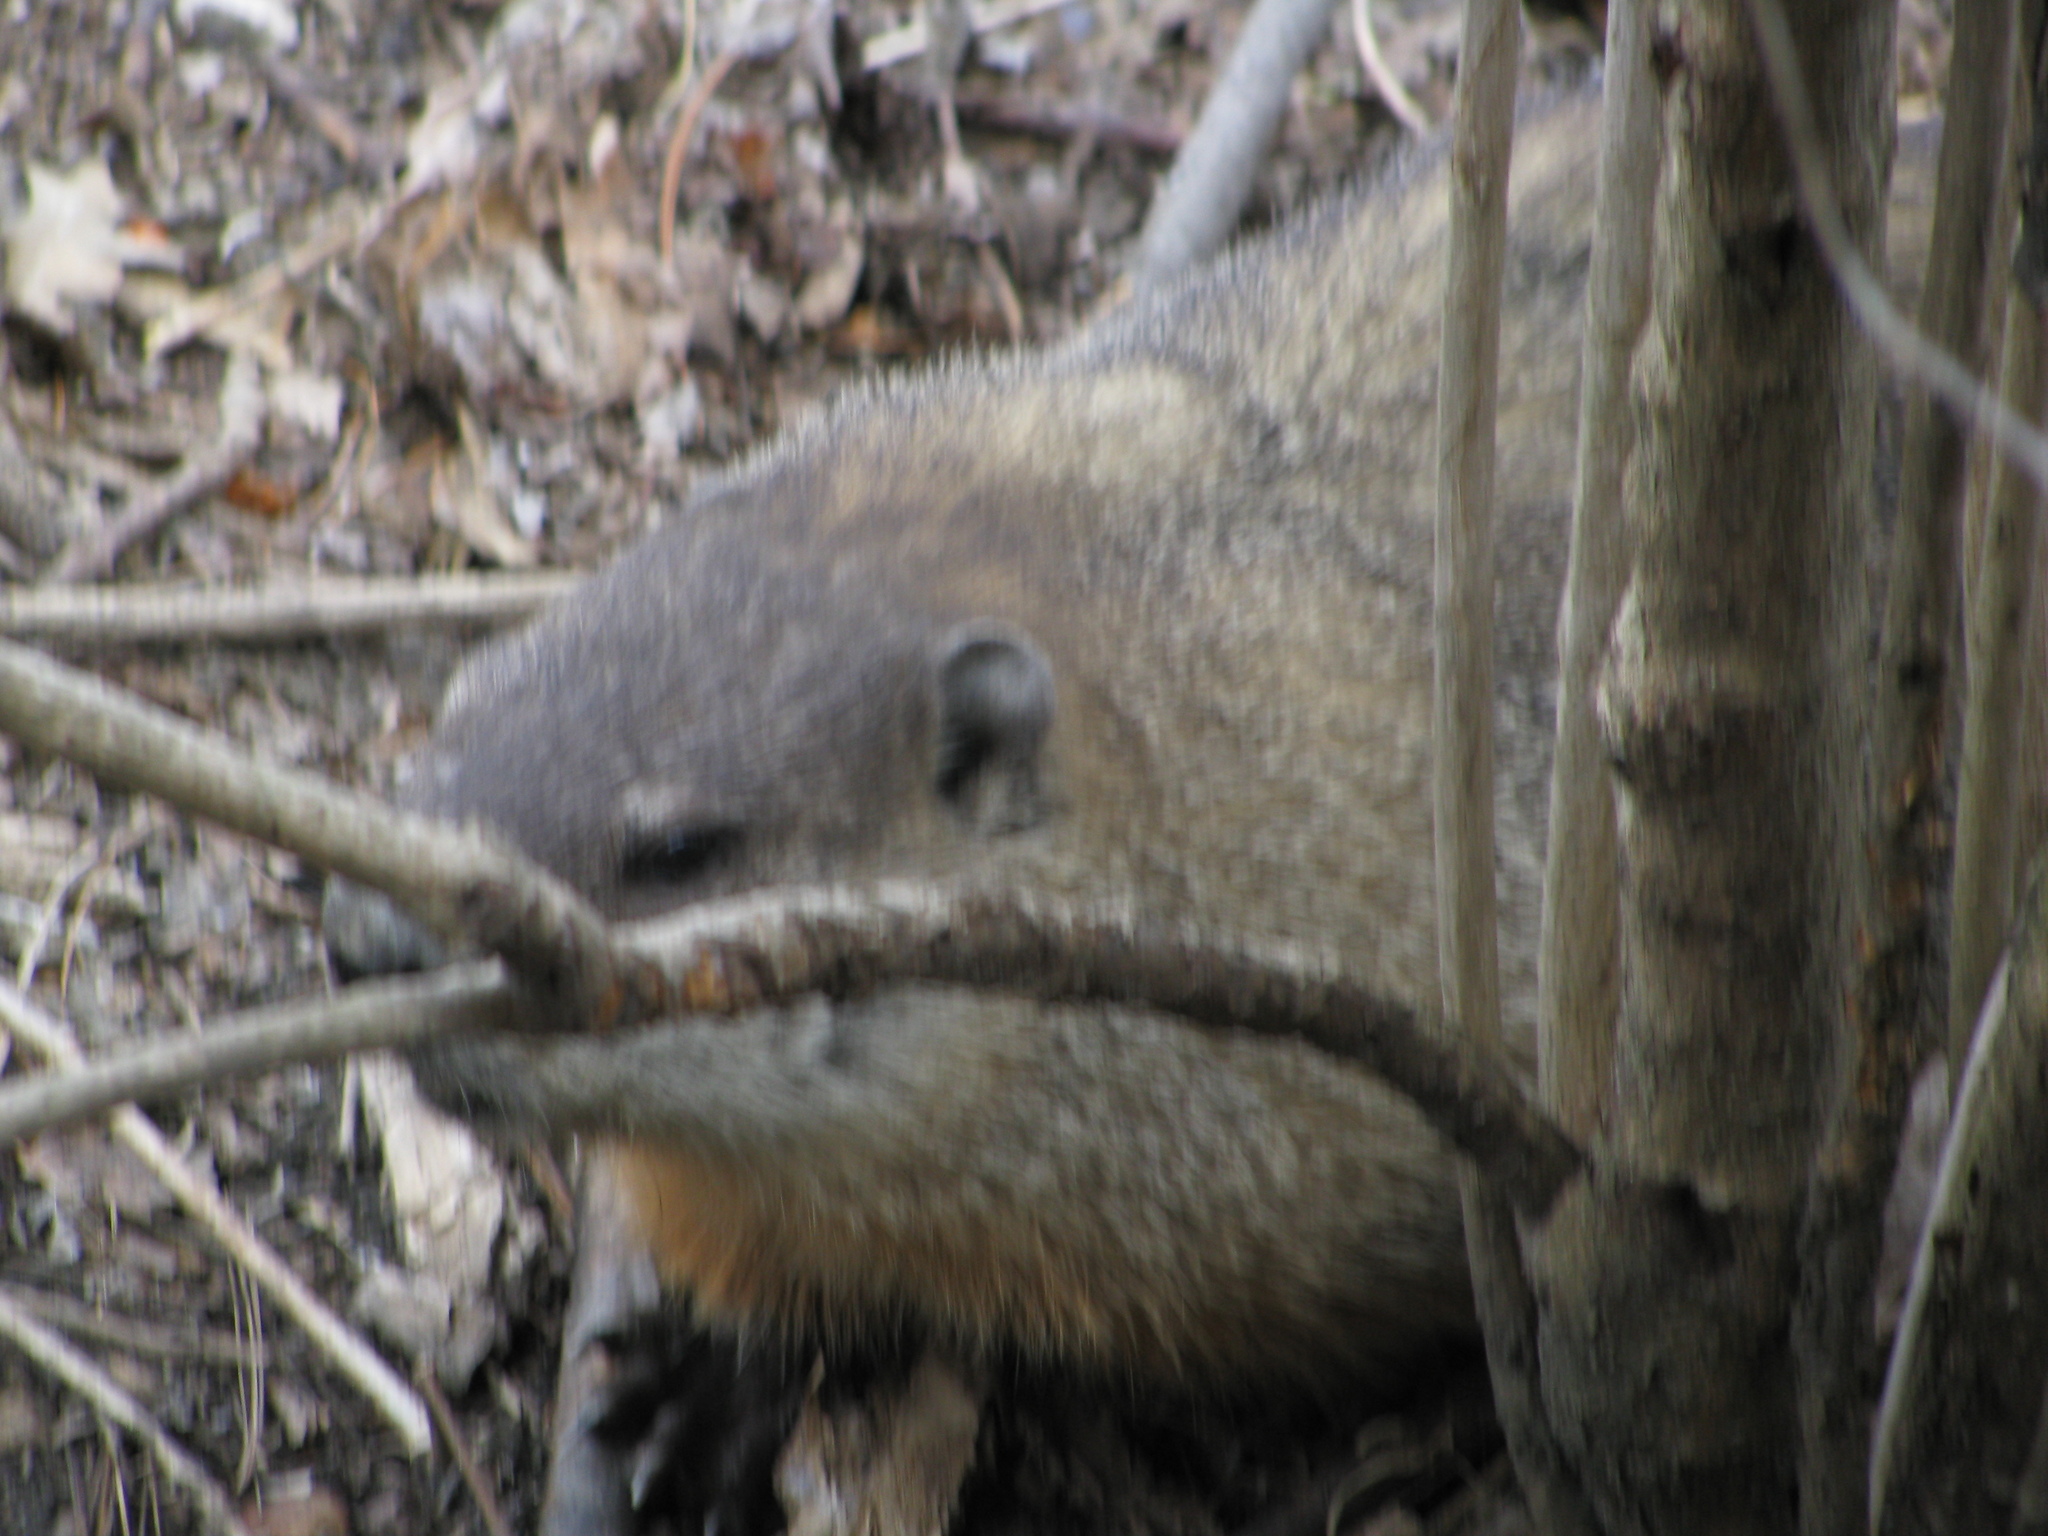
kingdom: Animalia
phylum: Chordata
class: Mammalia
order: Rodentia
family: Sciuridae
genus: Marmota
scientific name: Marmota monax
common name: Groundhog
